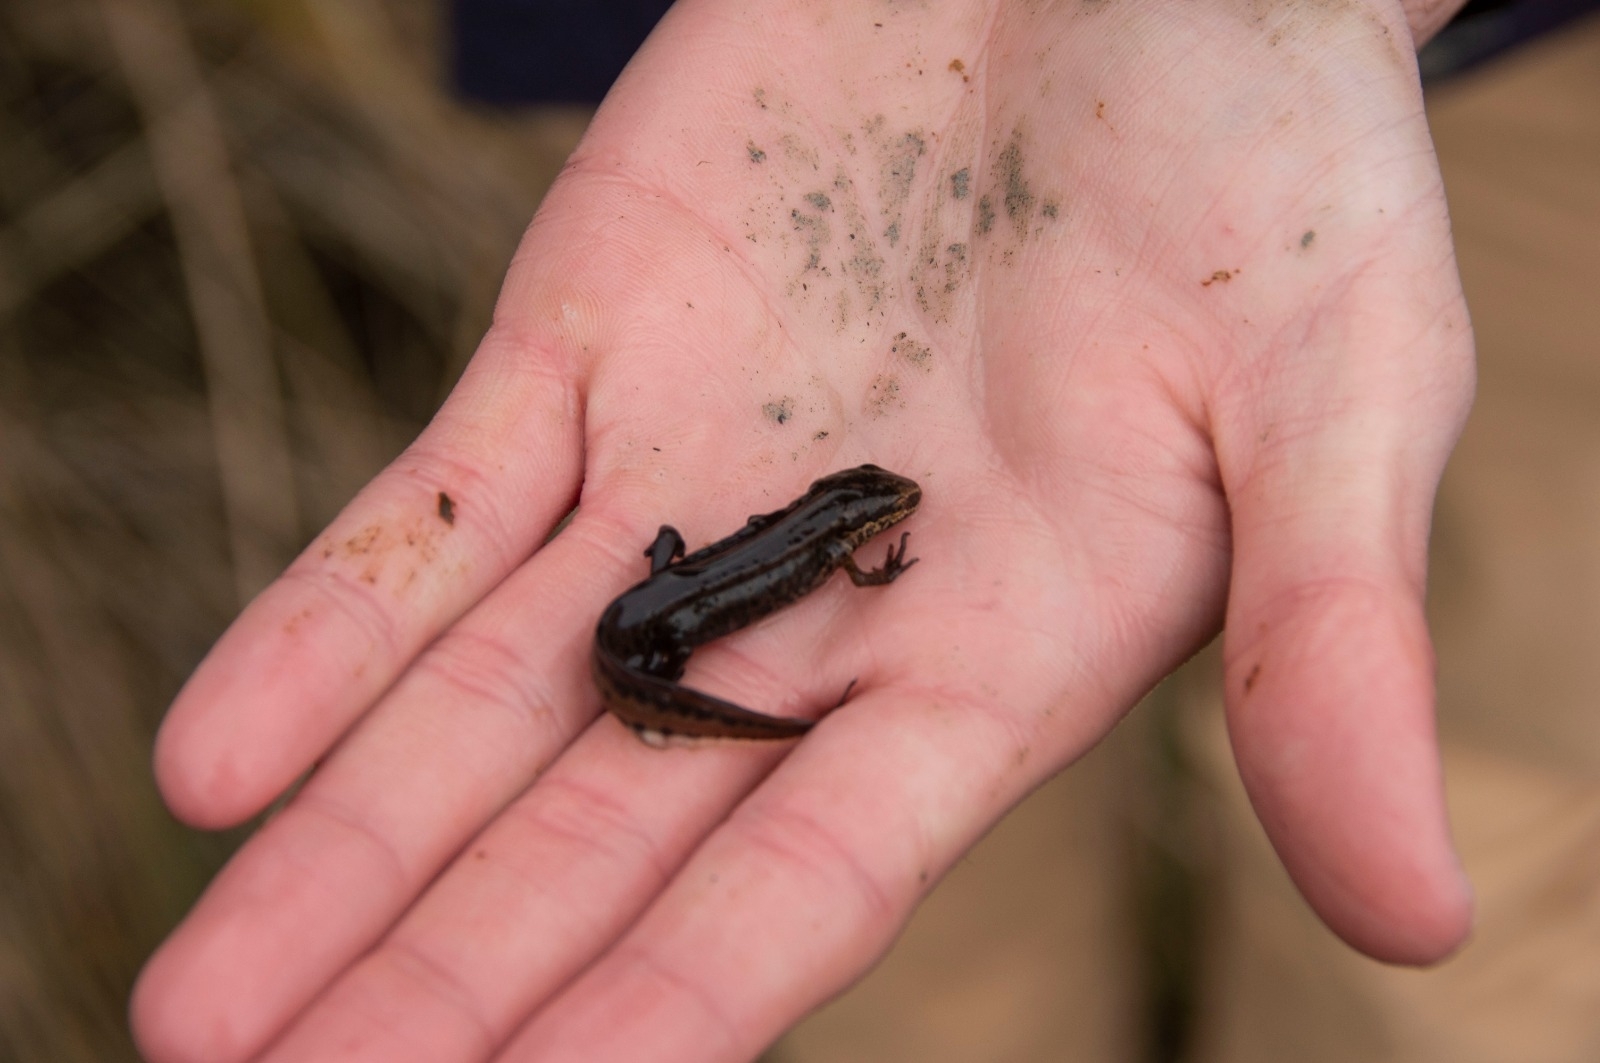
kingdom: Animalia
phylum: Chordata
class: Amphibia
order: Caudata
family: Salamandridae
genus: Lissotriton
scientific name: Lissotriton helveticus
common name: Palmate newt
